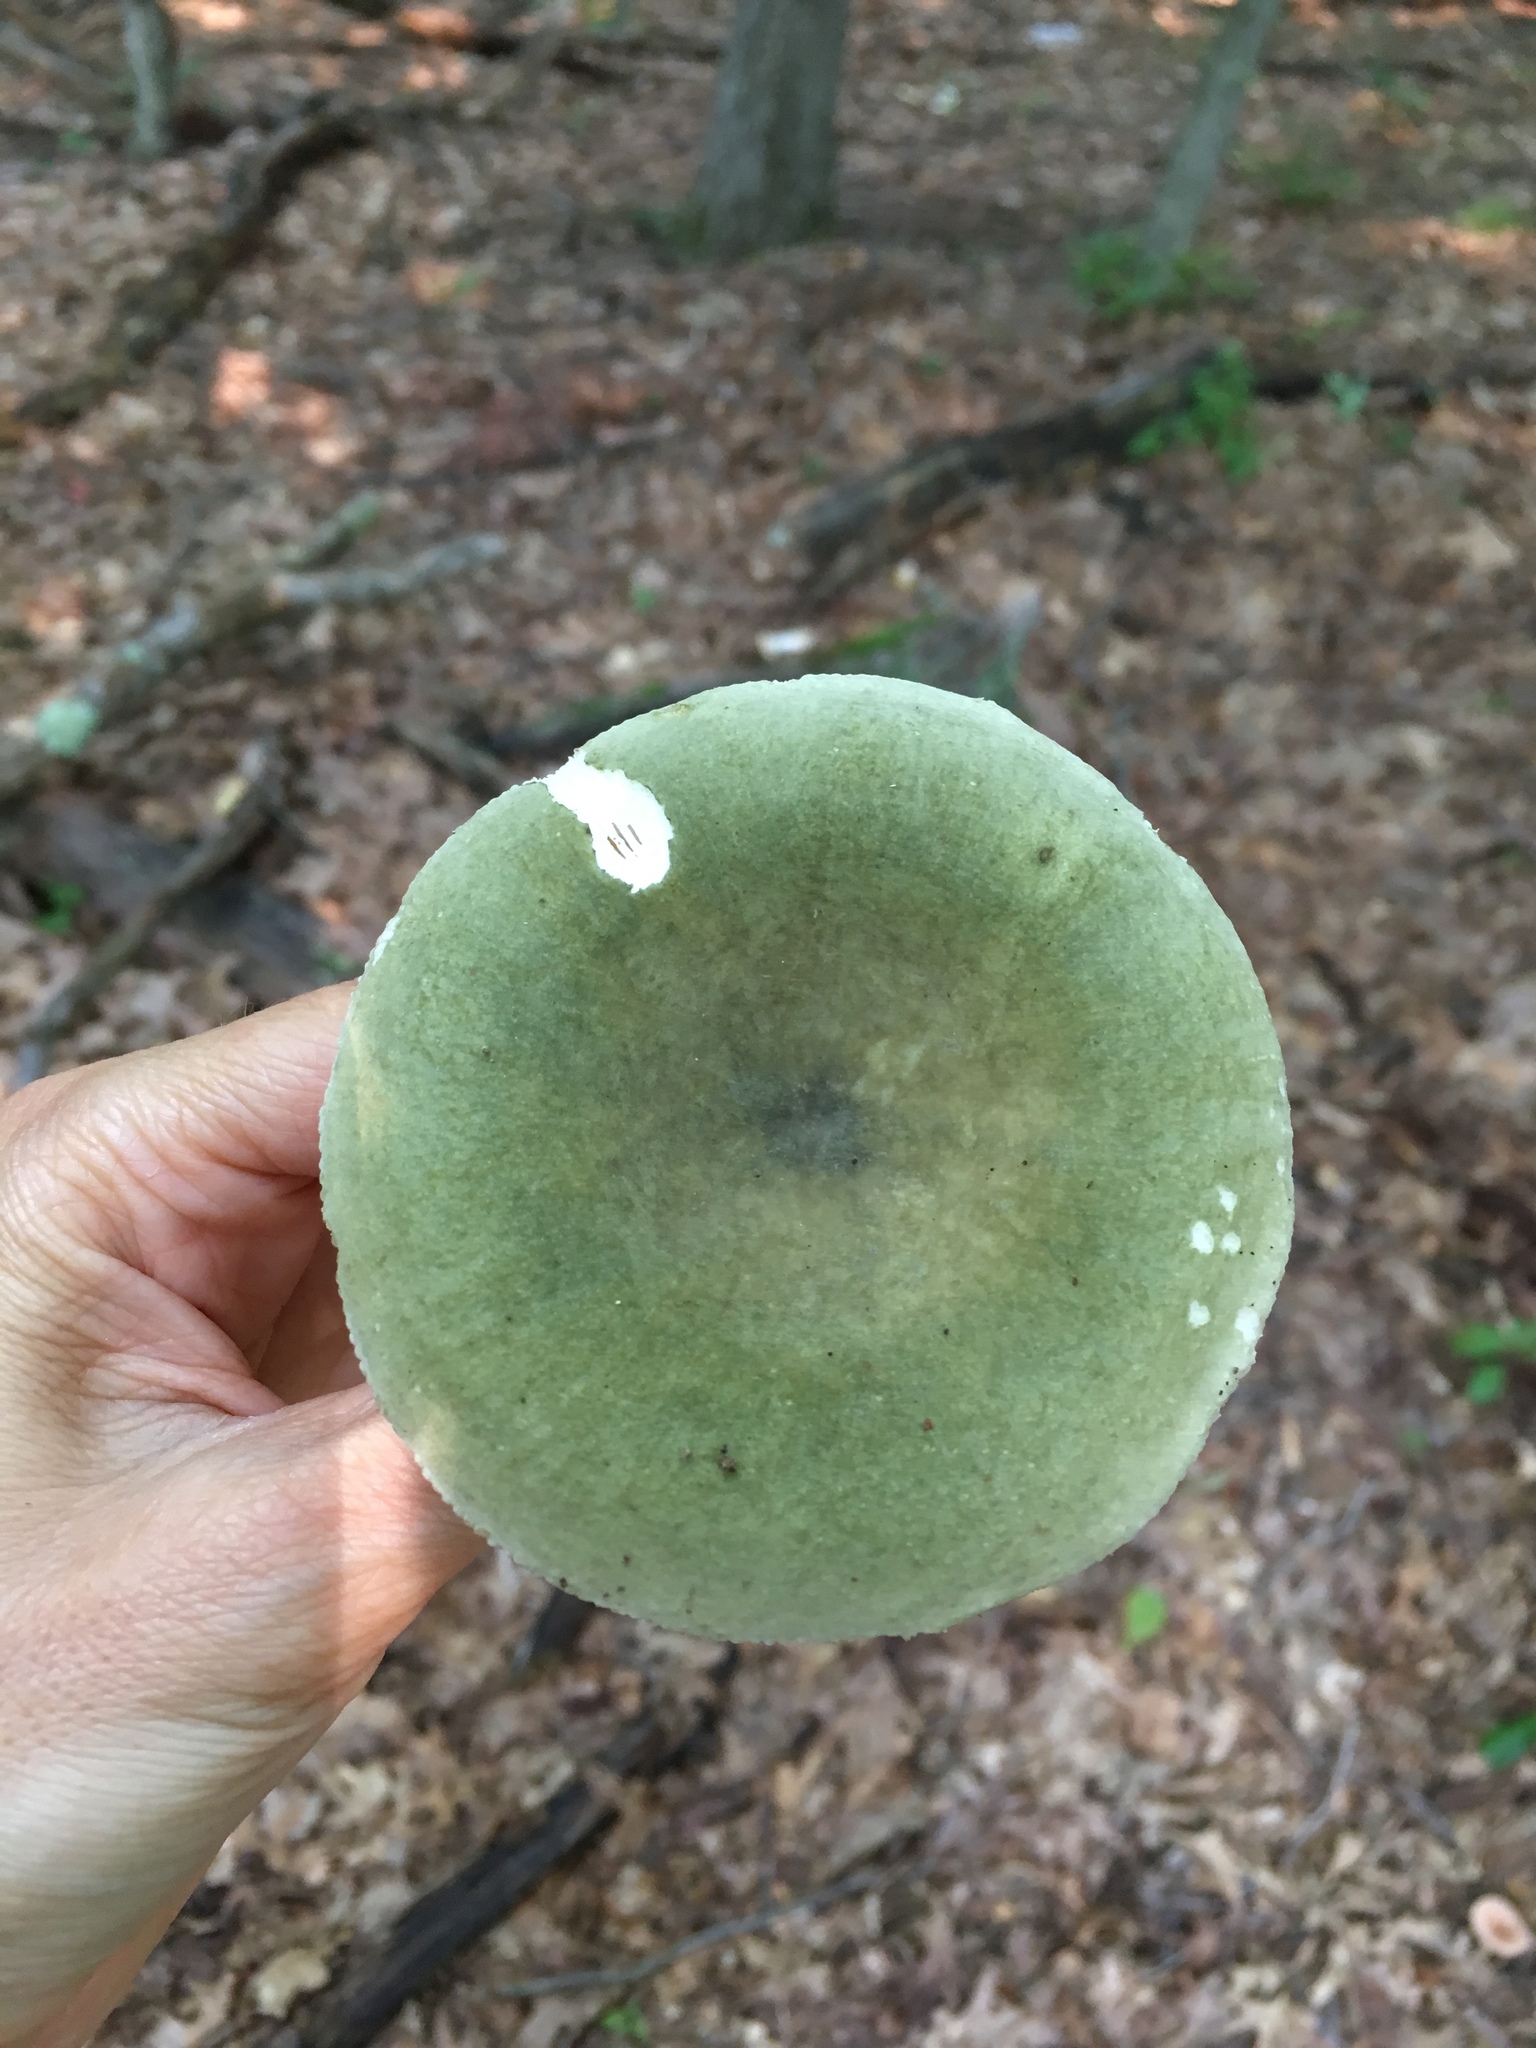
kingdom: Fungi
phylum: Basidiomycota
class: Agaricomycetes
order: Russulales
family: Russulaceae
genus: Russula
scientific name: Russula heterophylla
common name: Greasy green brittlegill
